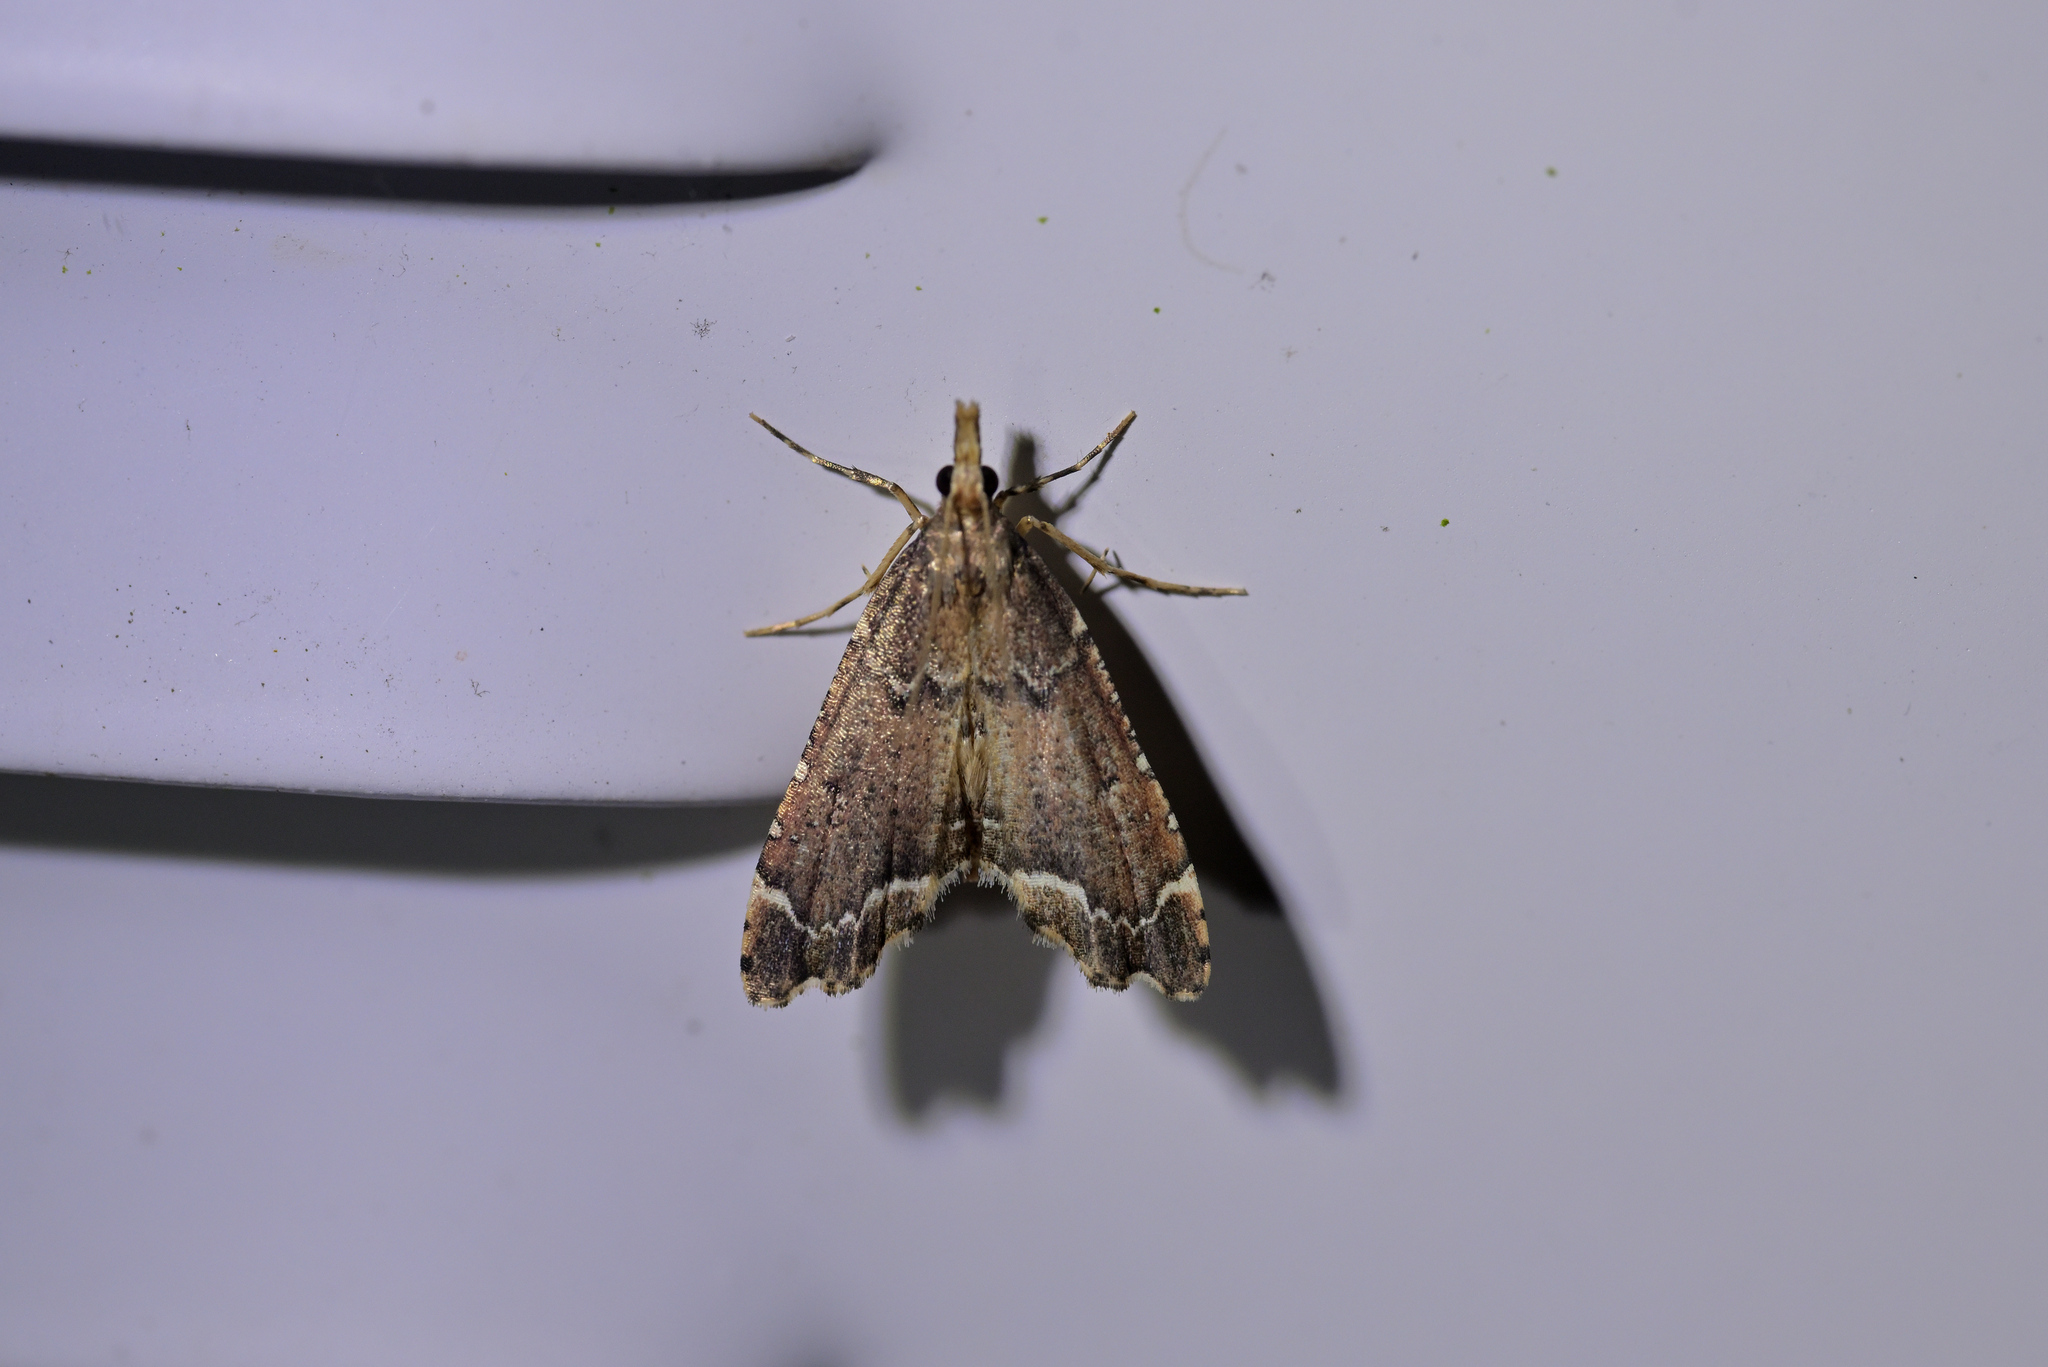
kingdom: Animalia
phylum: Arthropoda
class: Insecta
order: Lepidoptera
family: Crambidae
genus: Diplopseustis
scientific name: Diplopseustis perieresalis
